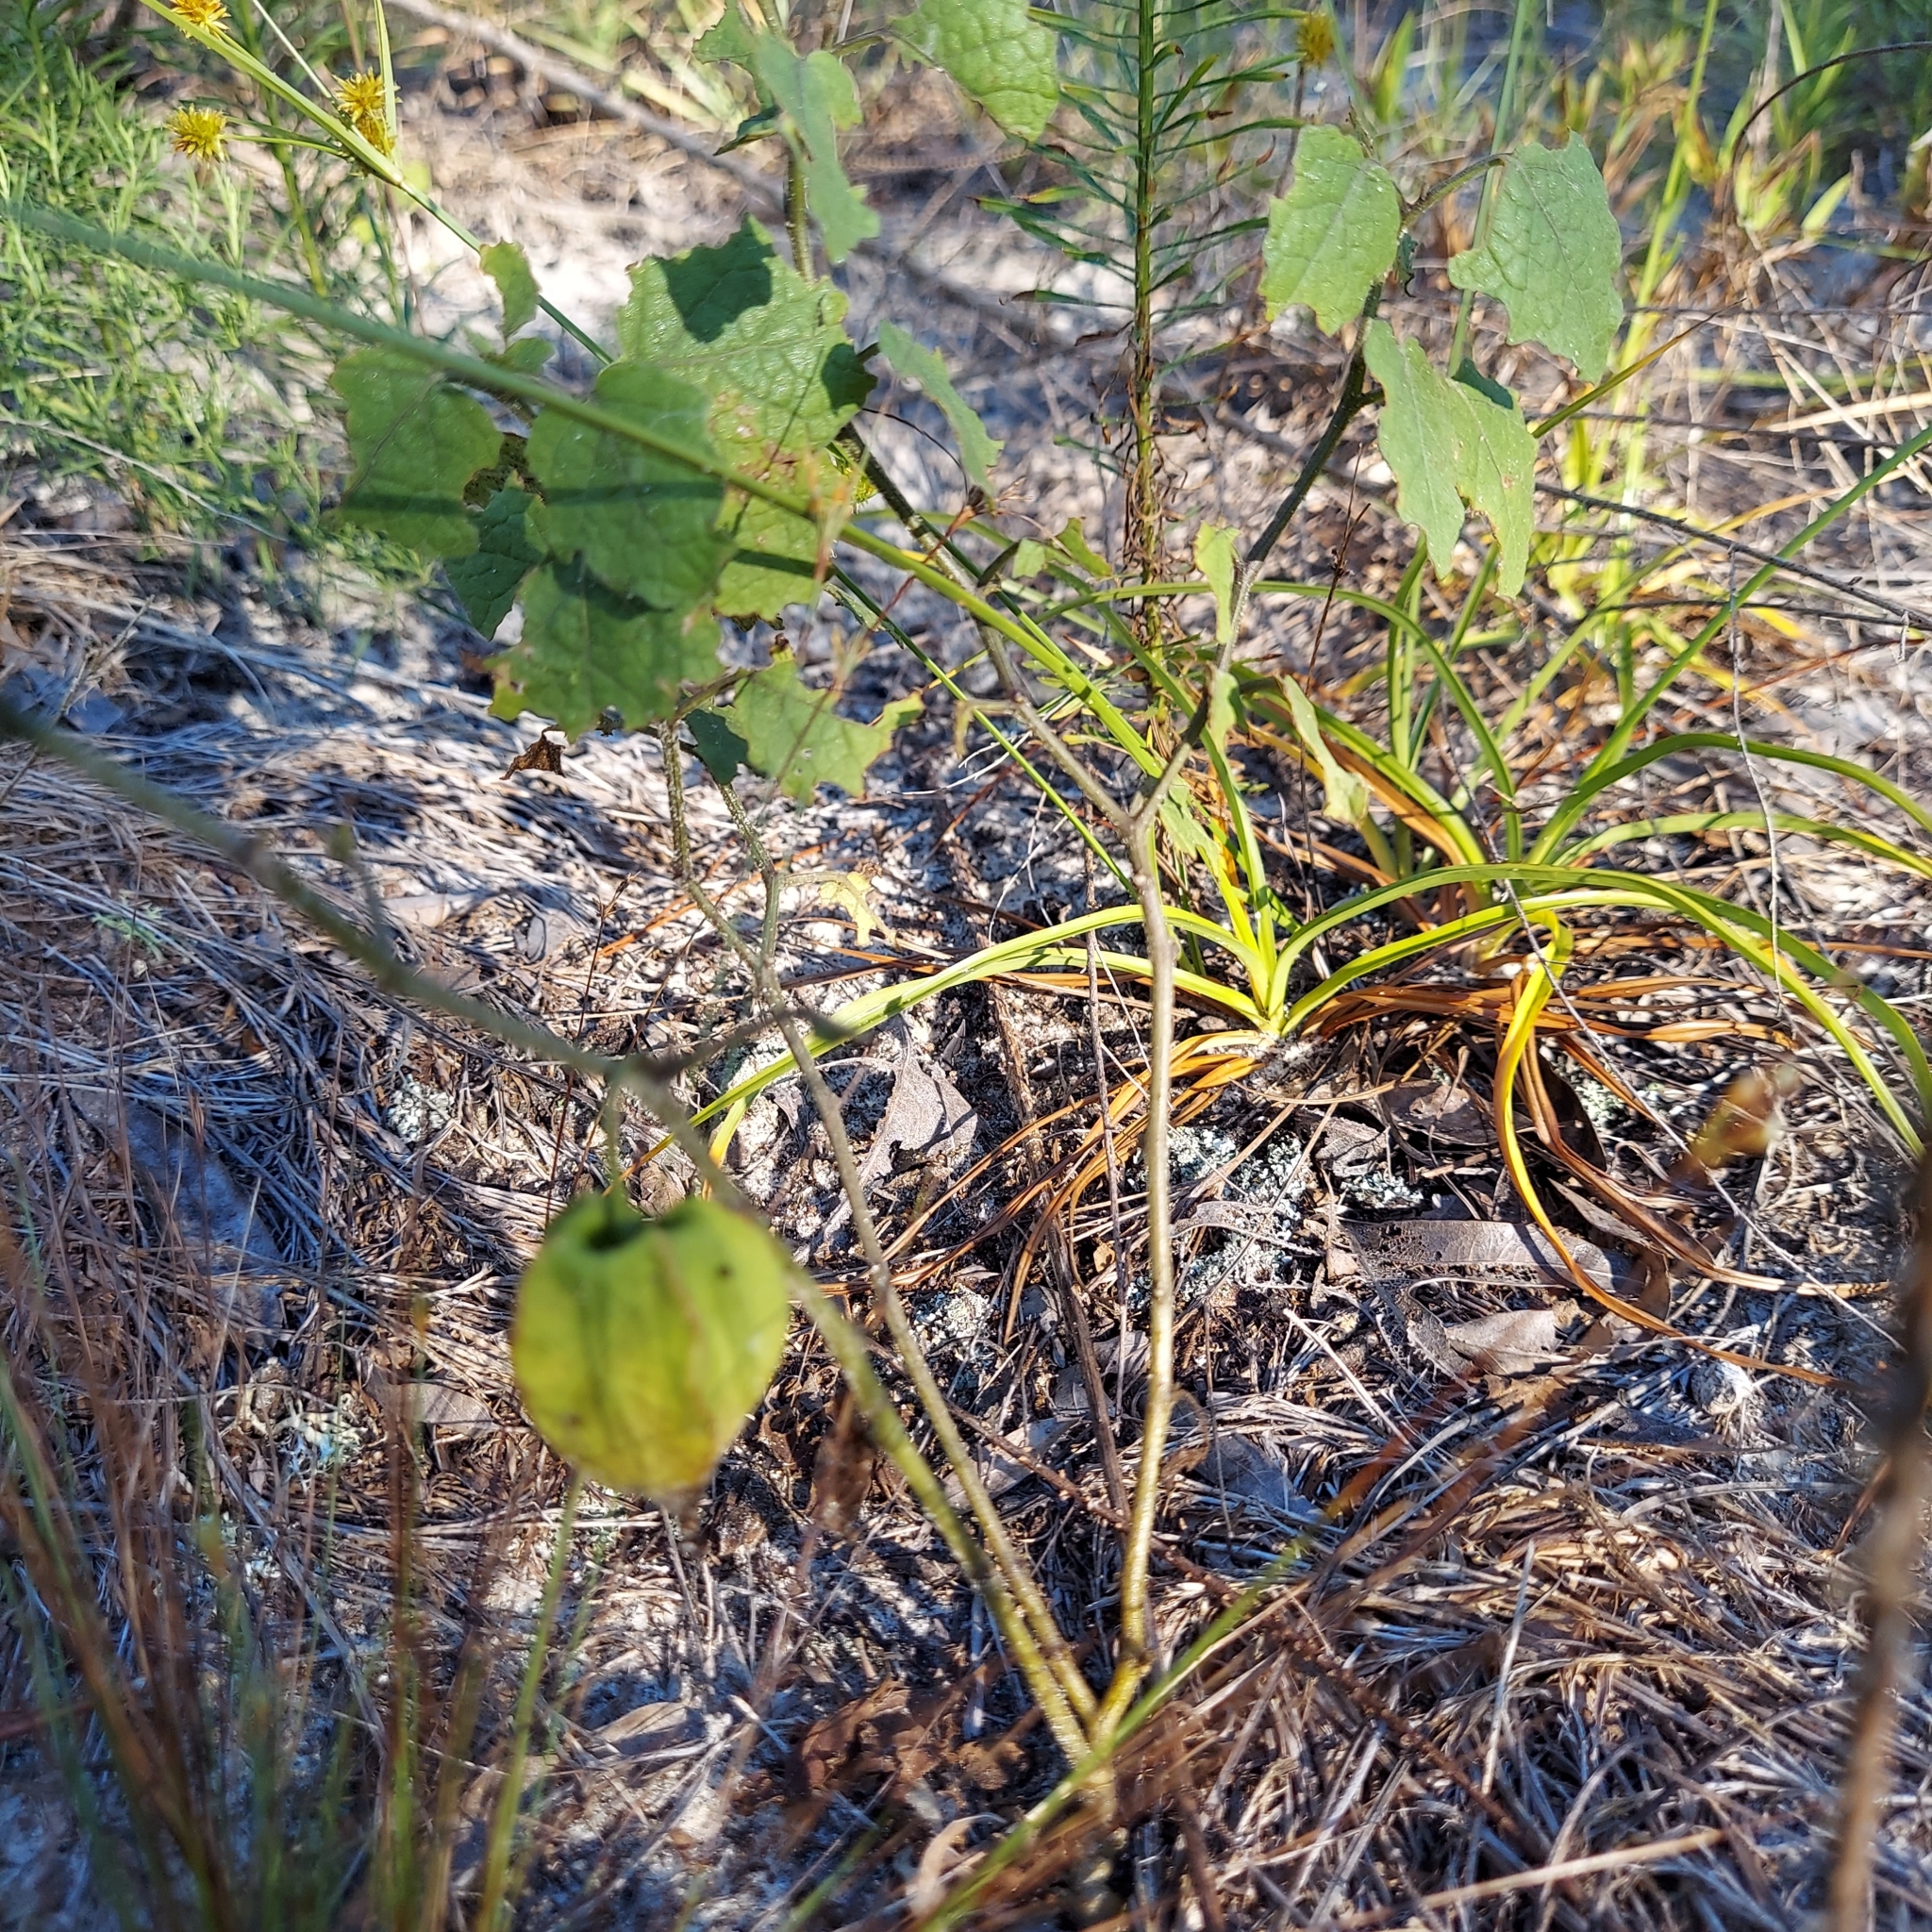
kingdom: Plantae
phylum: Tracheophyta
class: Magnoliopsida
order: Solanales
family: Solanaceae
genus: Physalis
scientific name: Physalis arenicola
